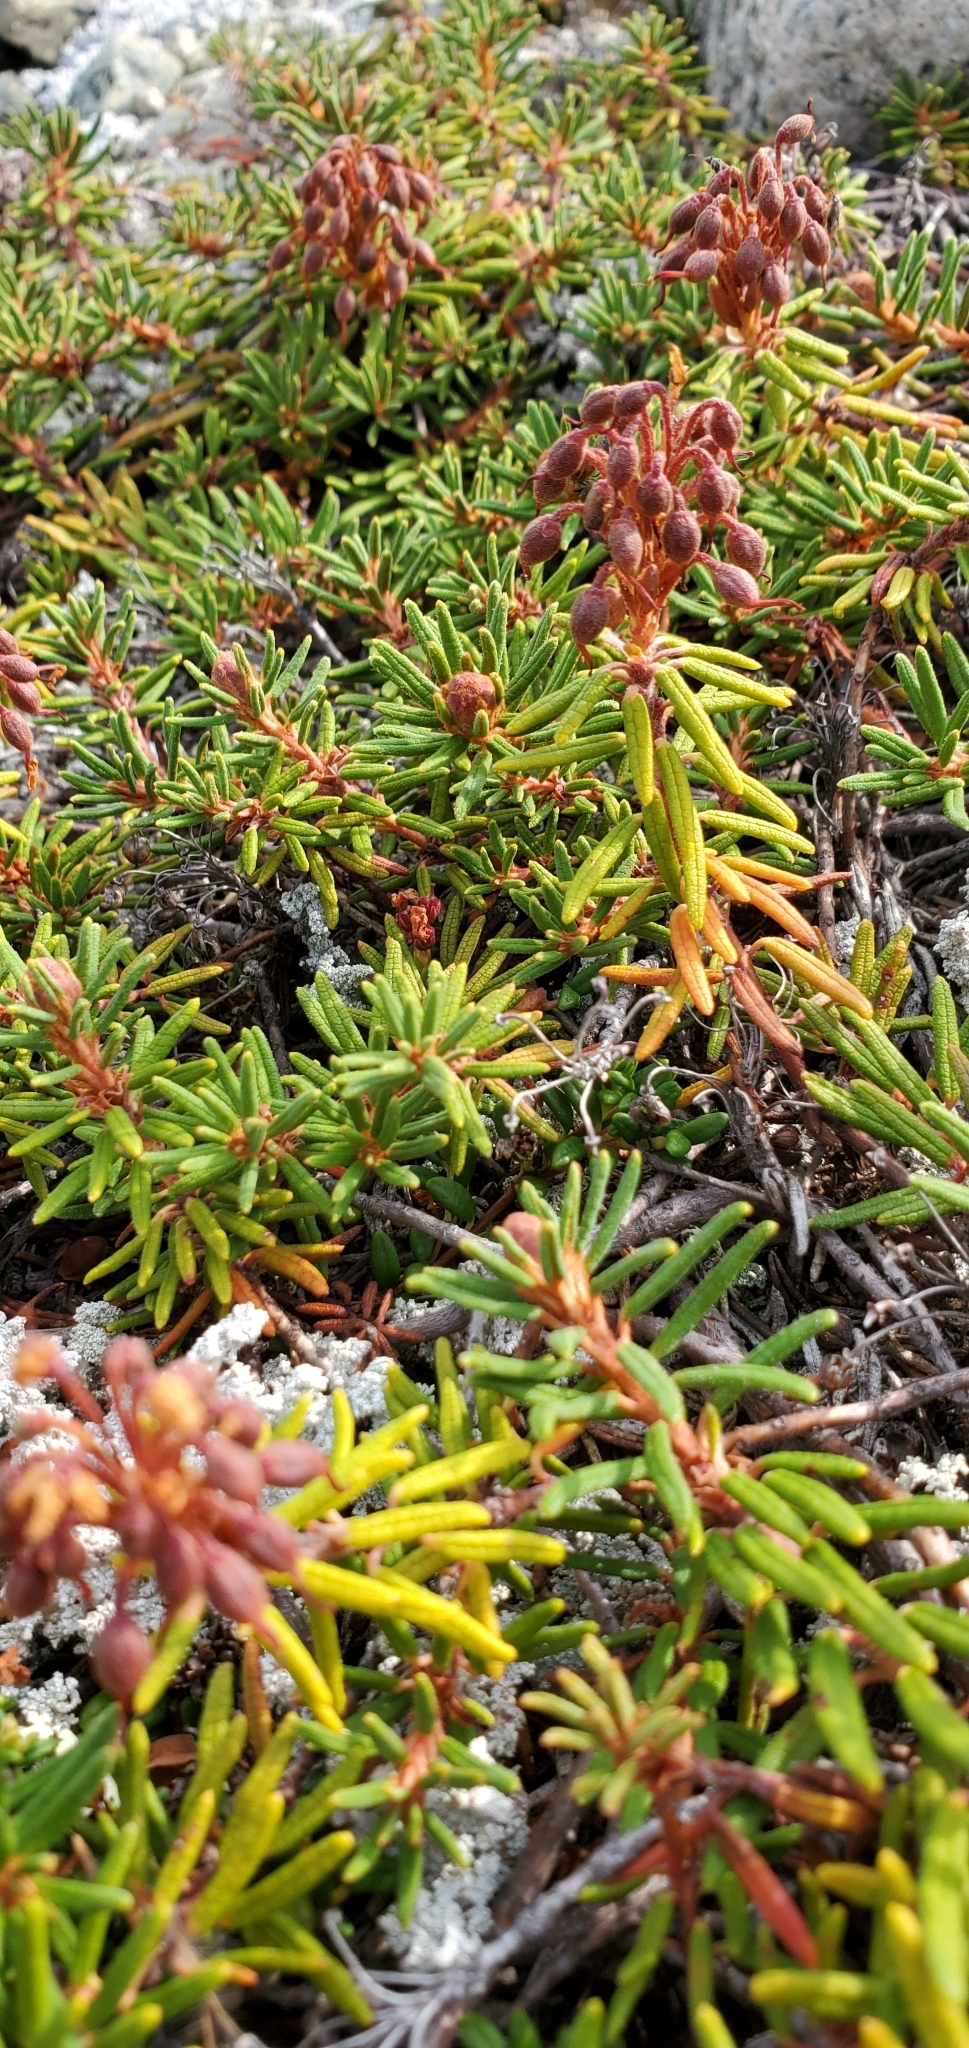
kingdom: Plantae
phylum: Tracheophyta
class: Magnoliopsida
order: Ericales
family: Ericaceae
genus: Rhododendron
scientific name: Rhododendron tomentosum
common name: Marsh labrador tea
